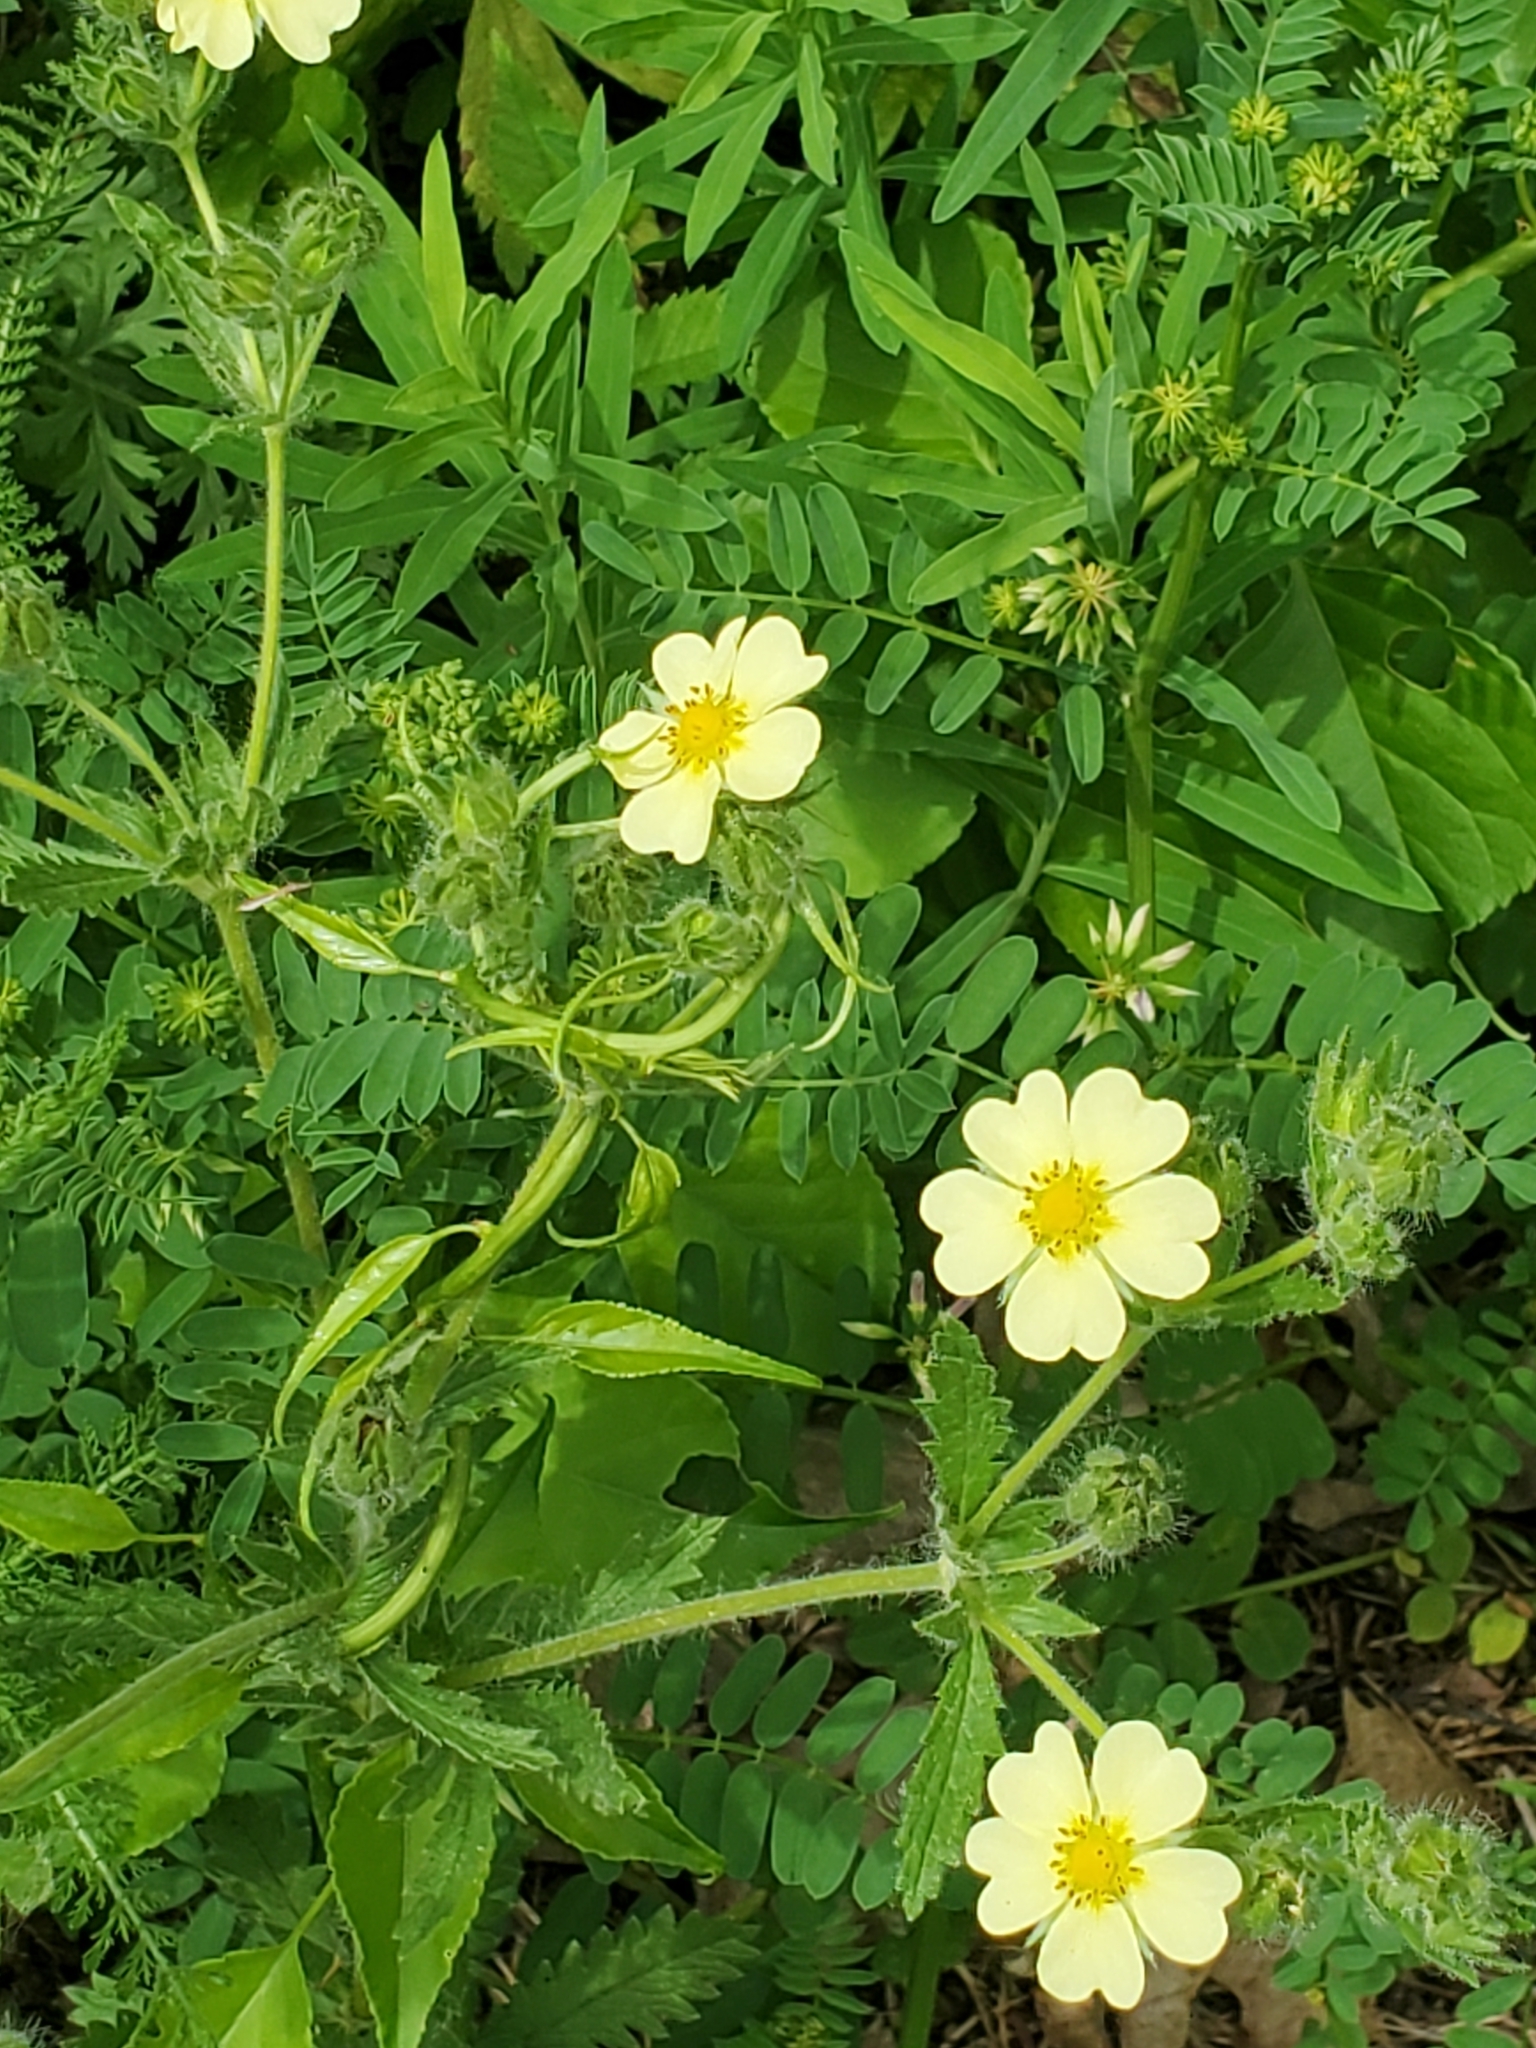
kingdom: Plantae
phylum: Tracheophyta
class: Magnoliopsida
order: Rosales
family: Rosaceae
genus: Potentilla
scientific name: Potentilla recta
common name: Sulphur cinquefoil
